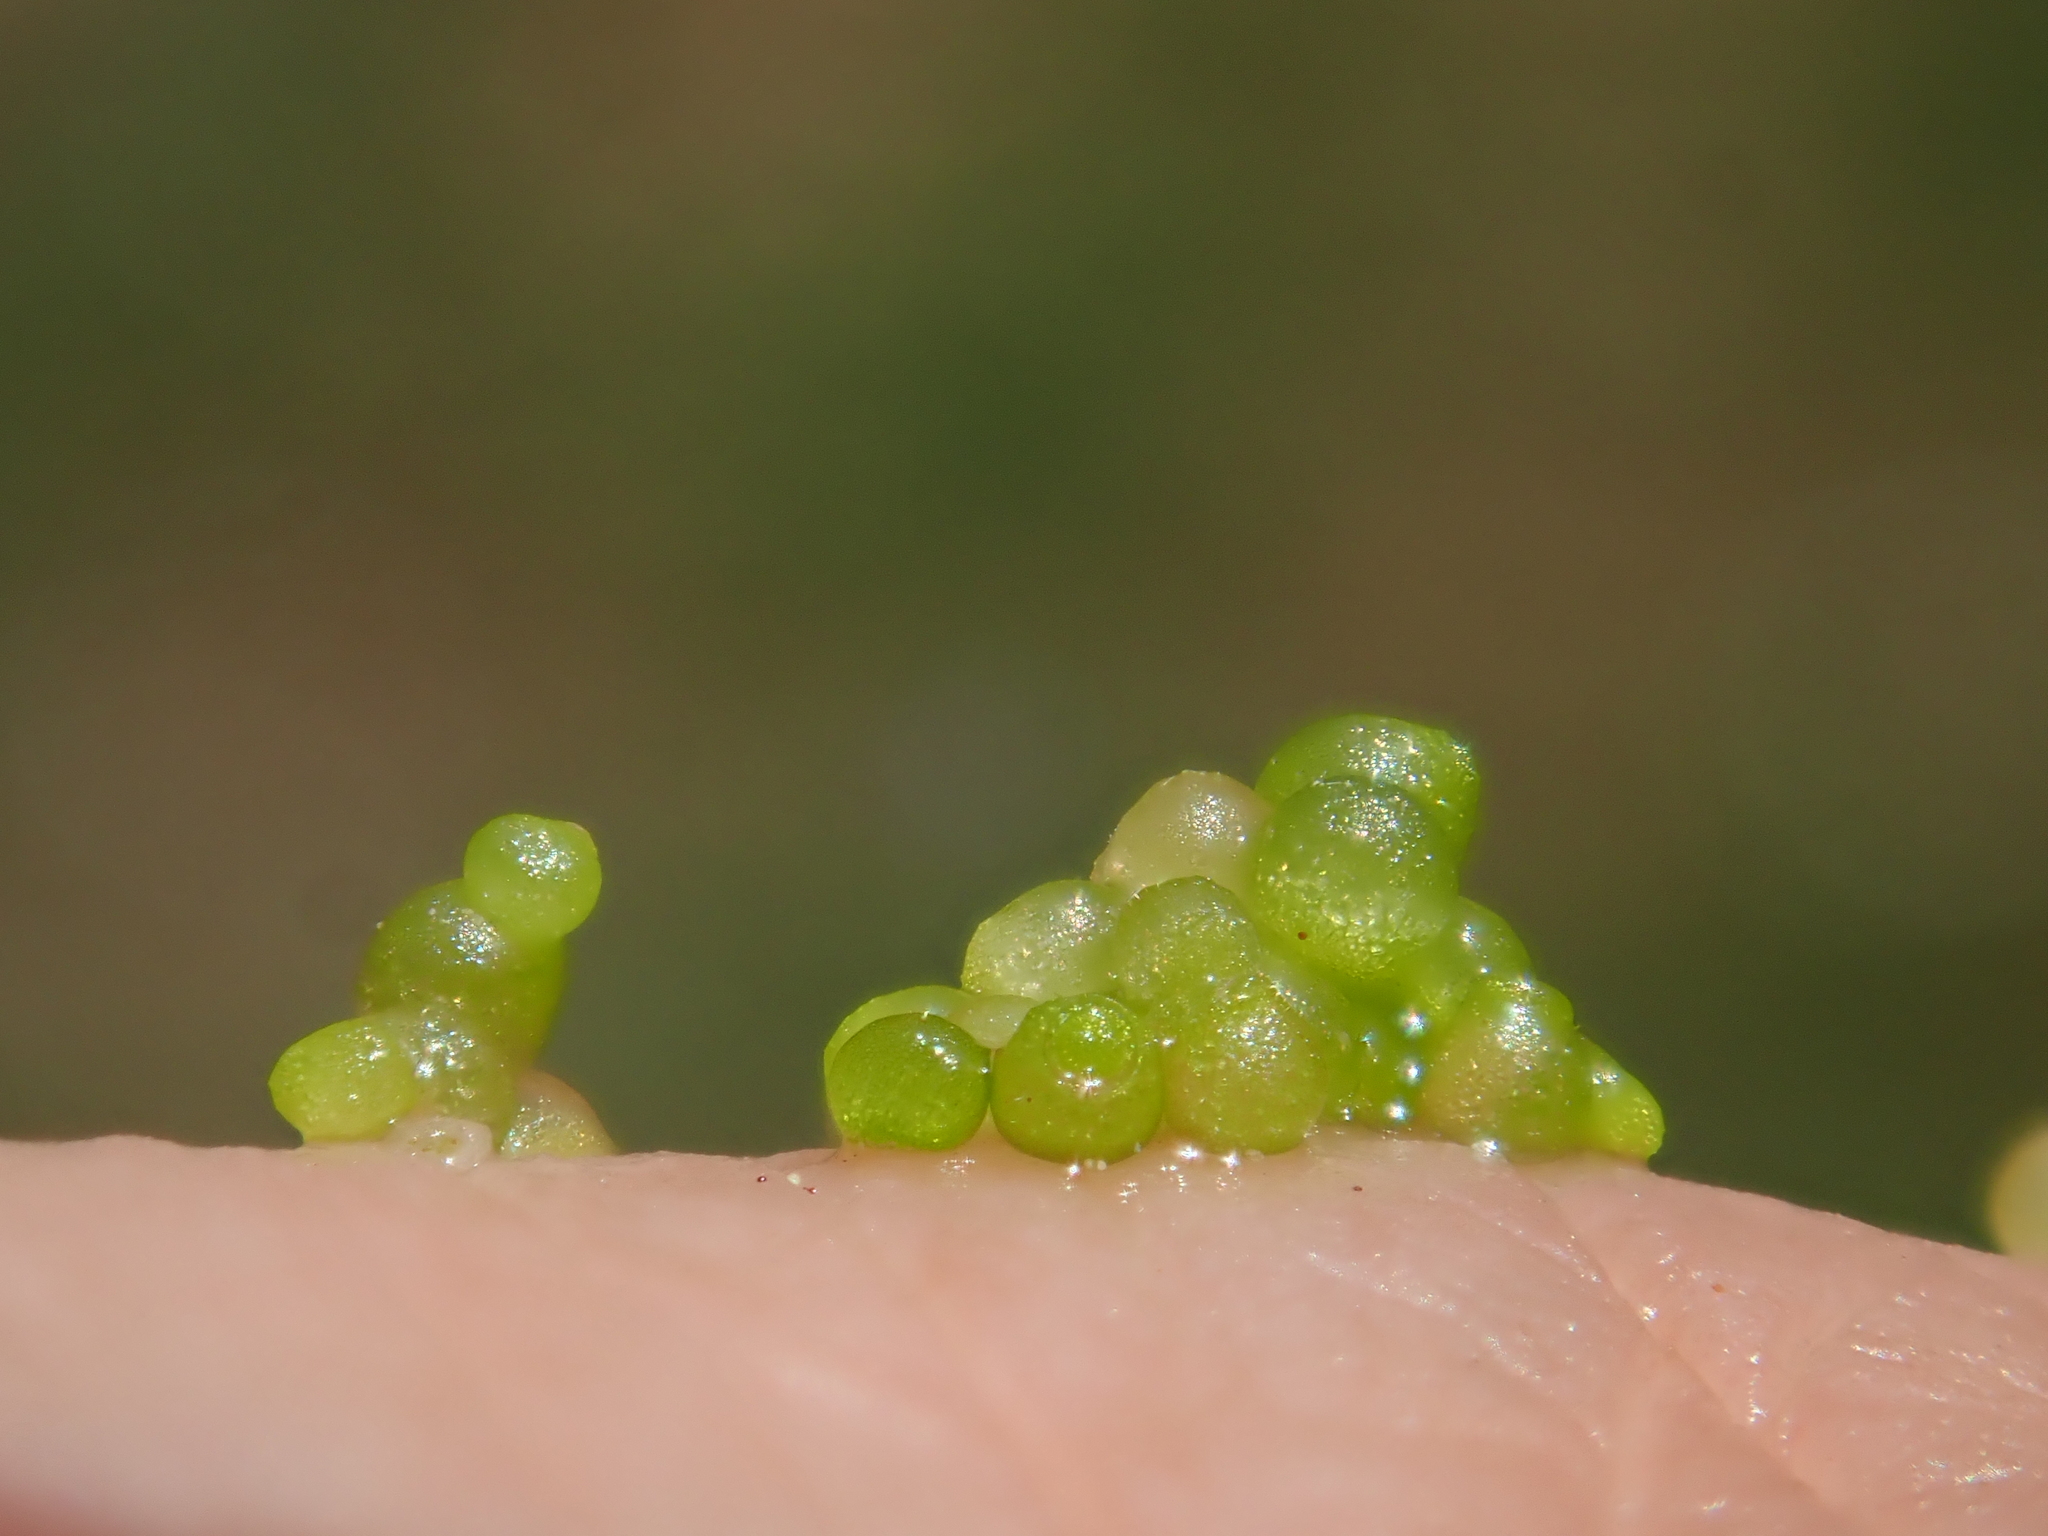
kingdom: Plantae
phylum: Tracheophyta
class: Liliopsida
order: Alismatales
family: Araceae
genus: Wolffia
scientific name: Wolffia arrhiza
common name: Rootless duckweed
